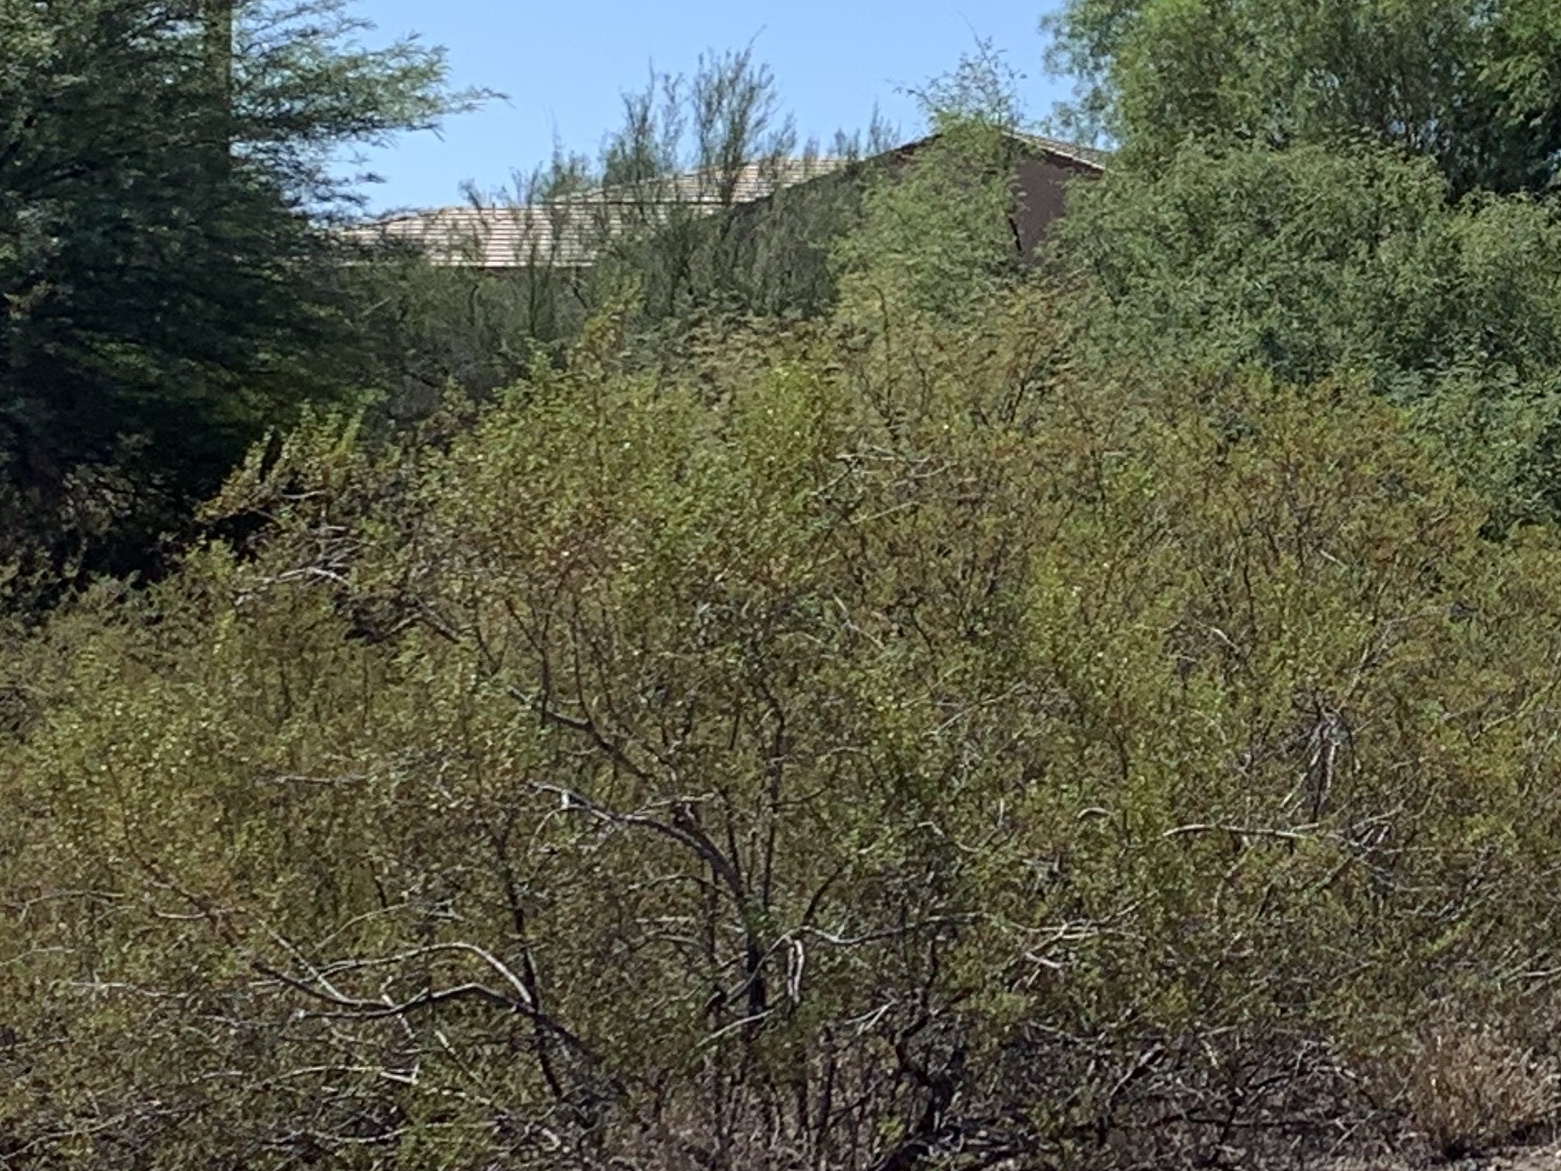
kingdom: Plantae
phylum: Tracheophyta
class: Magnoliopsida
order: Zygophyllales
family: Zygophyllaceae
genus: Larrea
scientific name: Larrea tridentata
